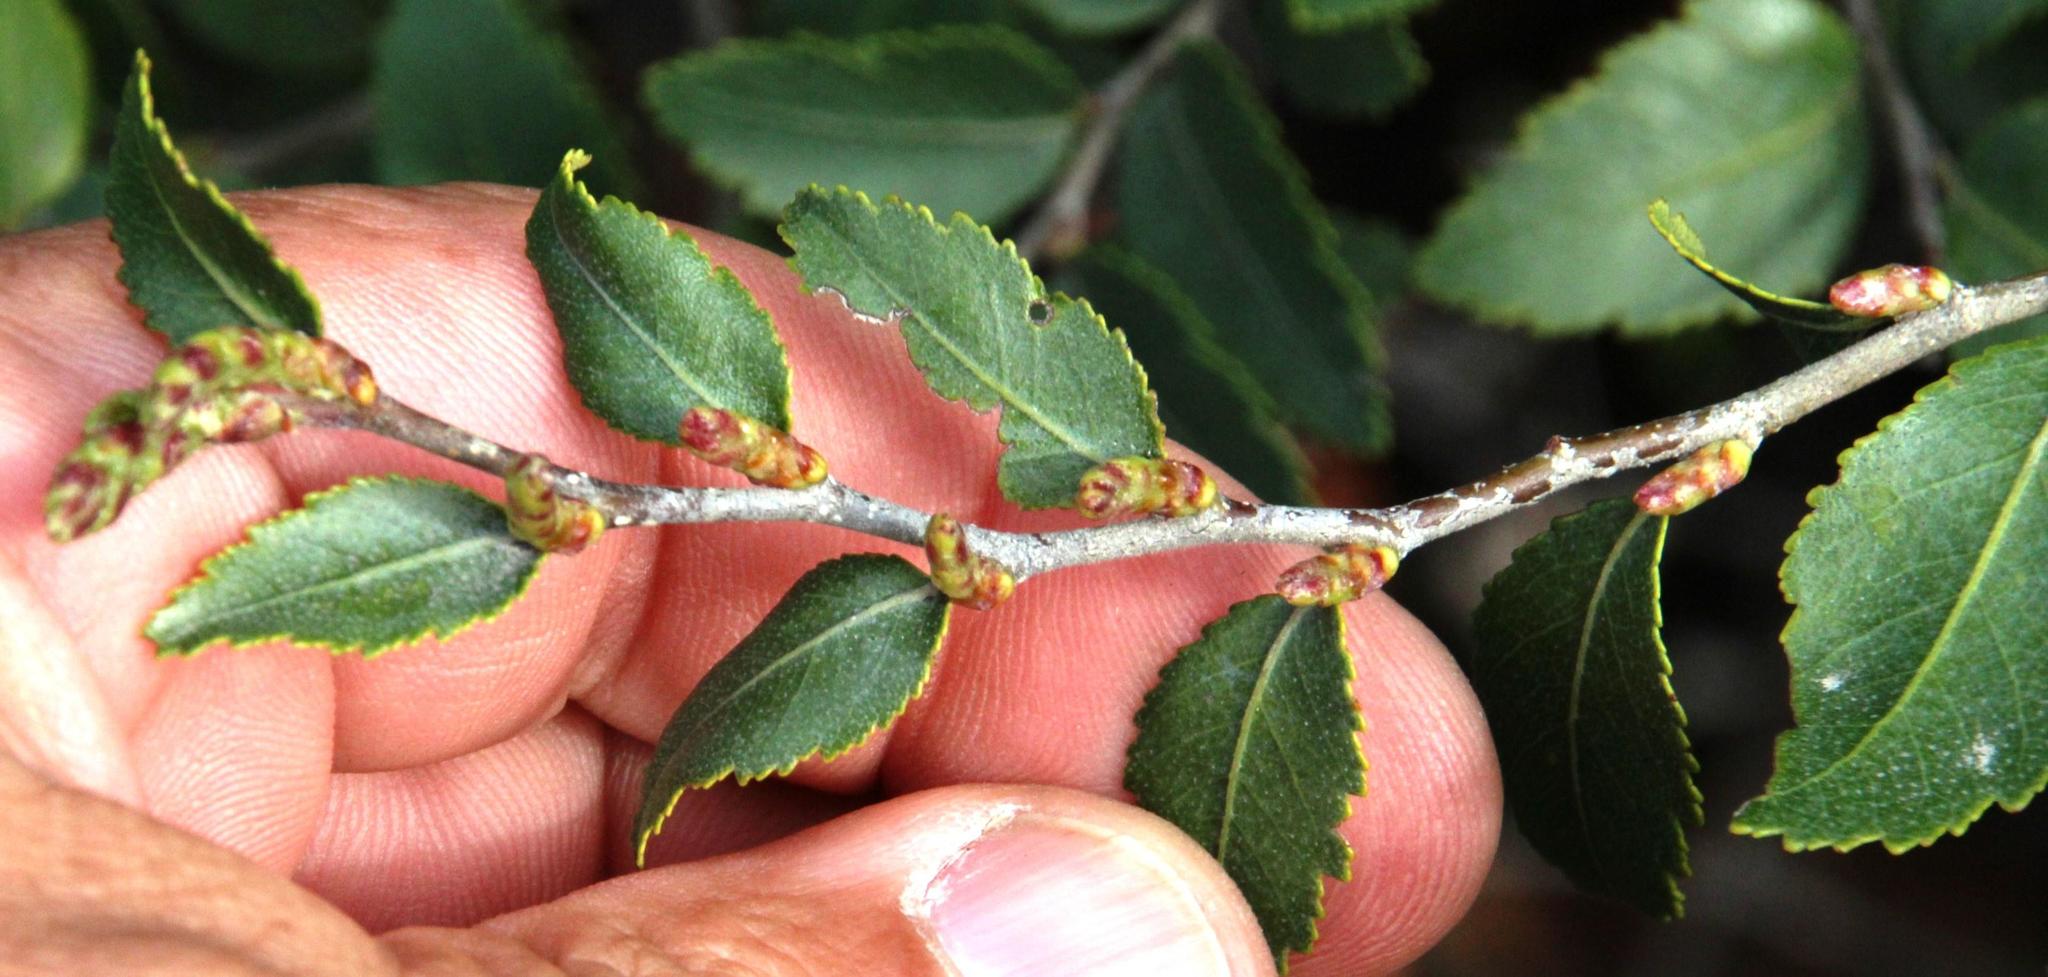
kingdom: Plantae
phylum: Tracheophyta
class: Magnoliopsida
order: Fagales
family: Nothofagaceae
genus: Nothofagus
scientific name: Nothofagus dombeyi
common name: Coigue
